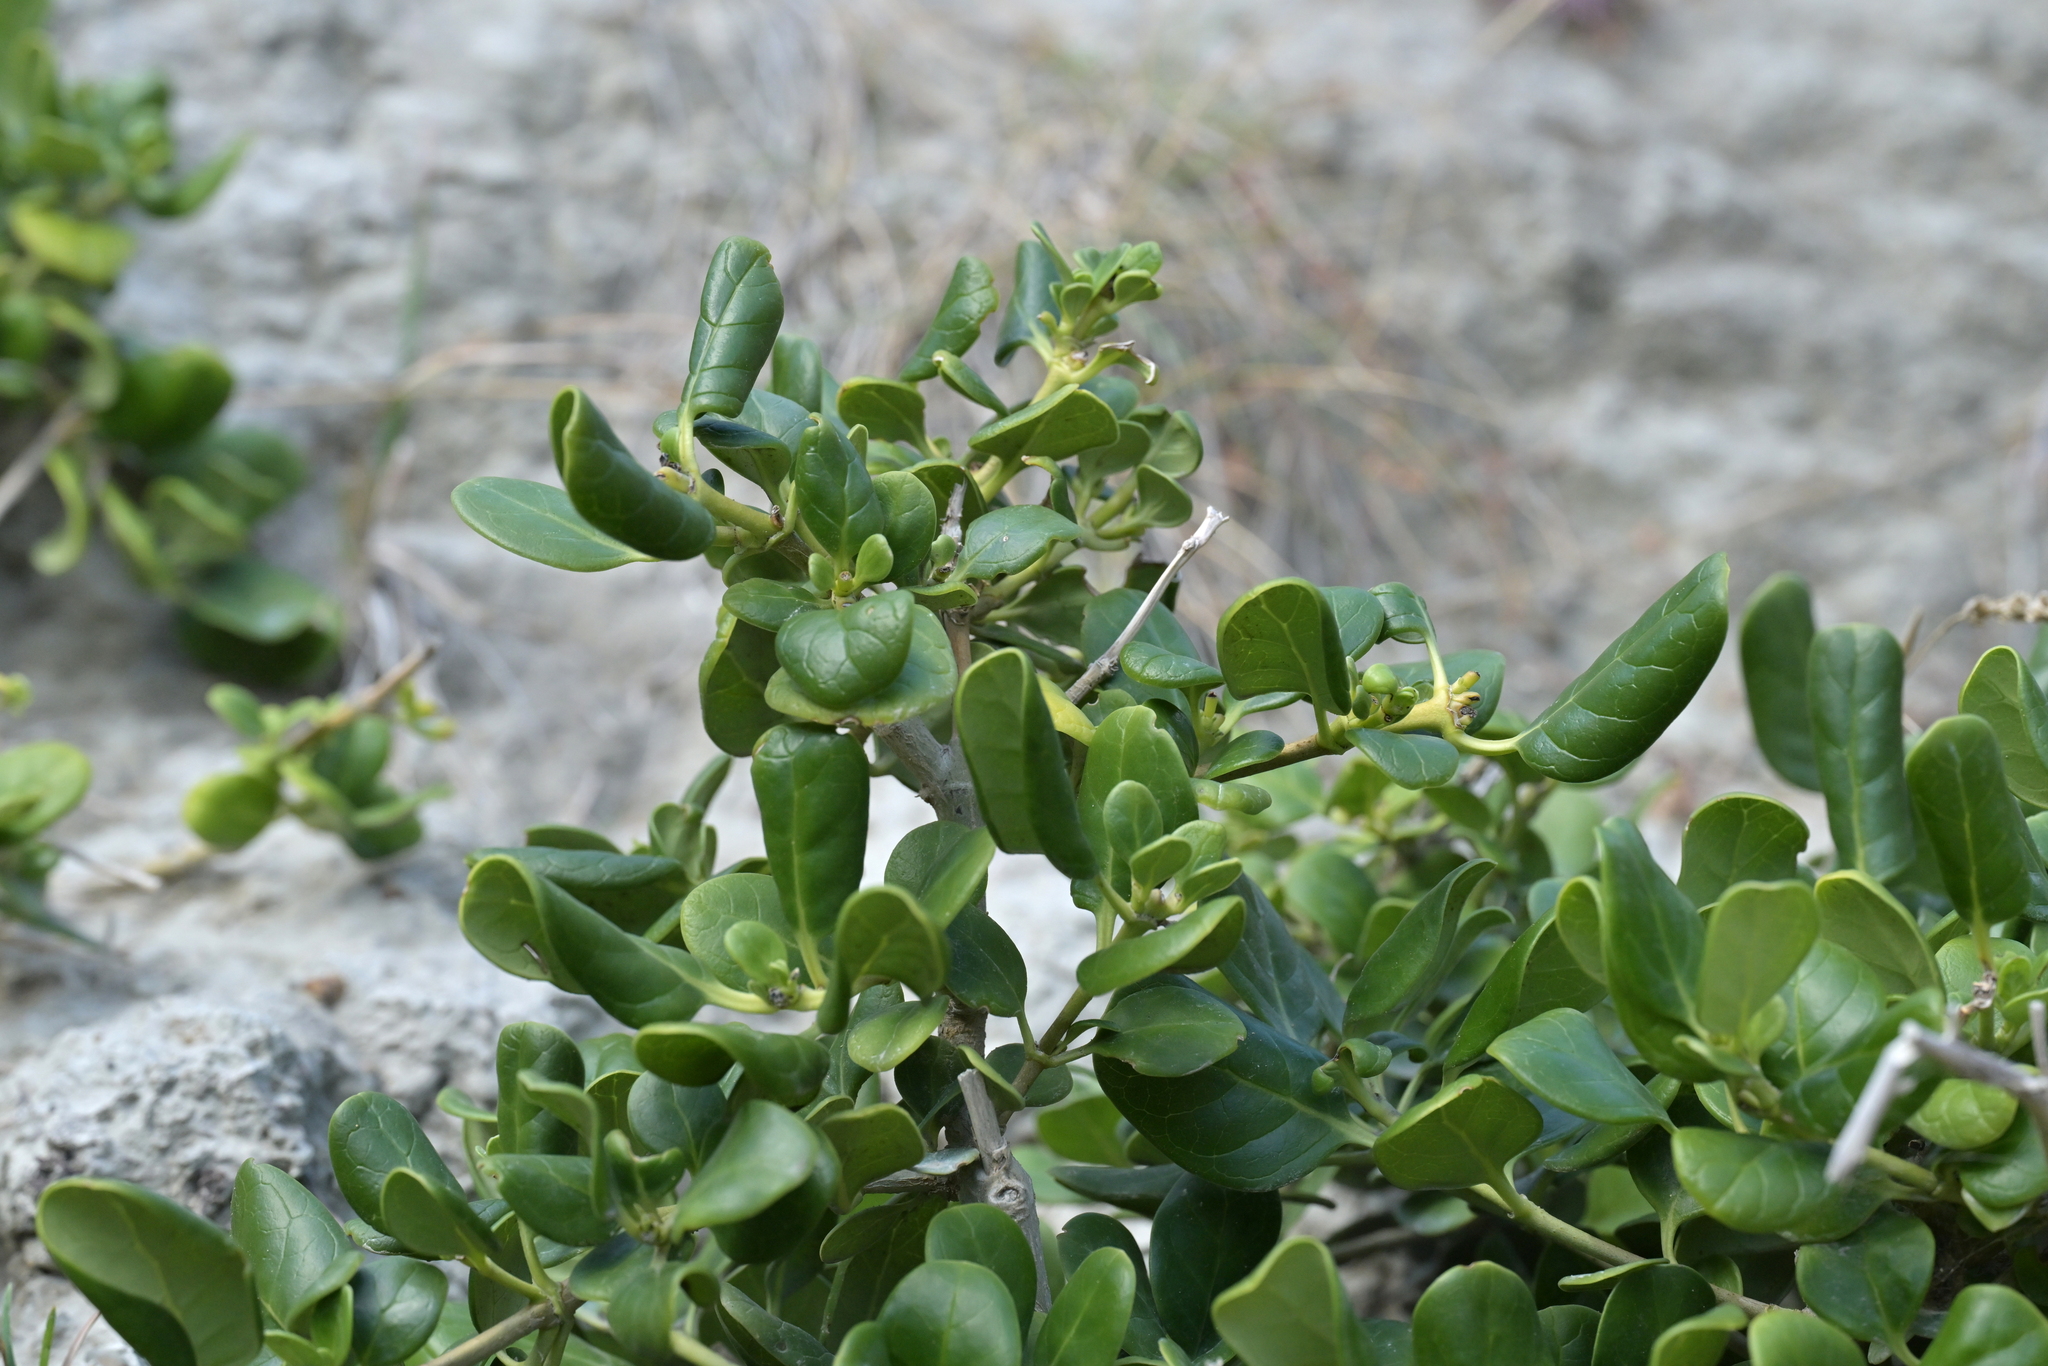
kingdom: Plantae
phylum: Tracheophyta
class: Magnoliopsida
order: Gentianales
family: Rubiaceae
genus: Coprosma
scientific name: Coprosma repens
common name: Tree bedstraw
